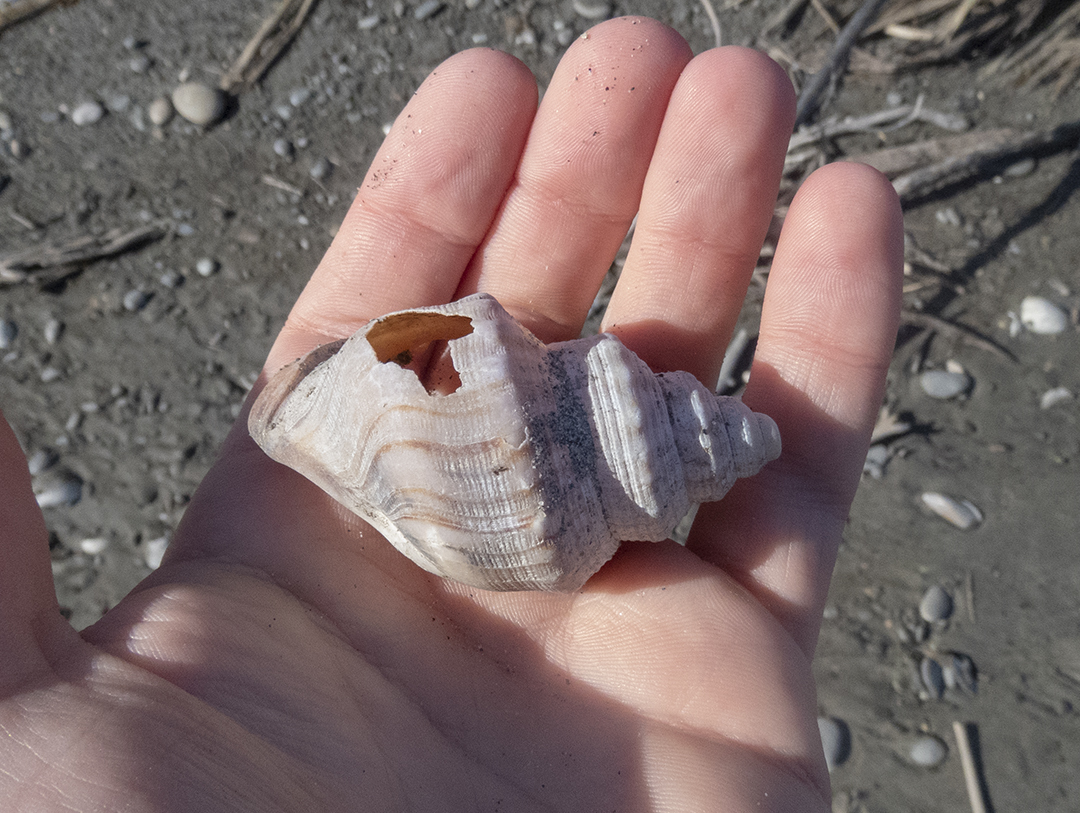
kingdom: Animalia
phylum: Mollusca
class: Gastropoda
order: Littorinimorpha
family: Struthiolariidae
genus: Struthiolaria
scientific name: Struthiolaria papulosa
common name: Large ostrich foot
